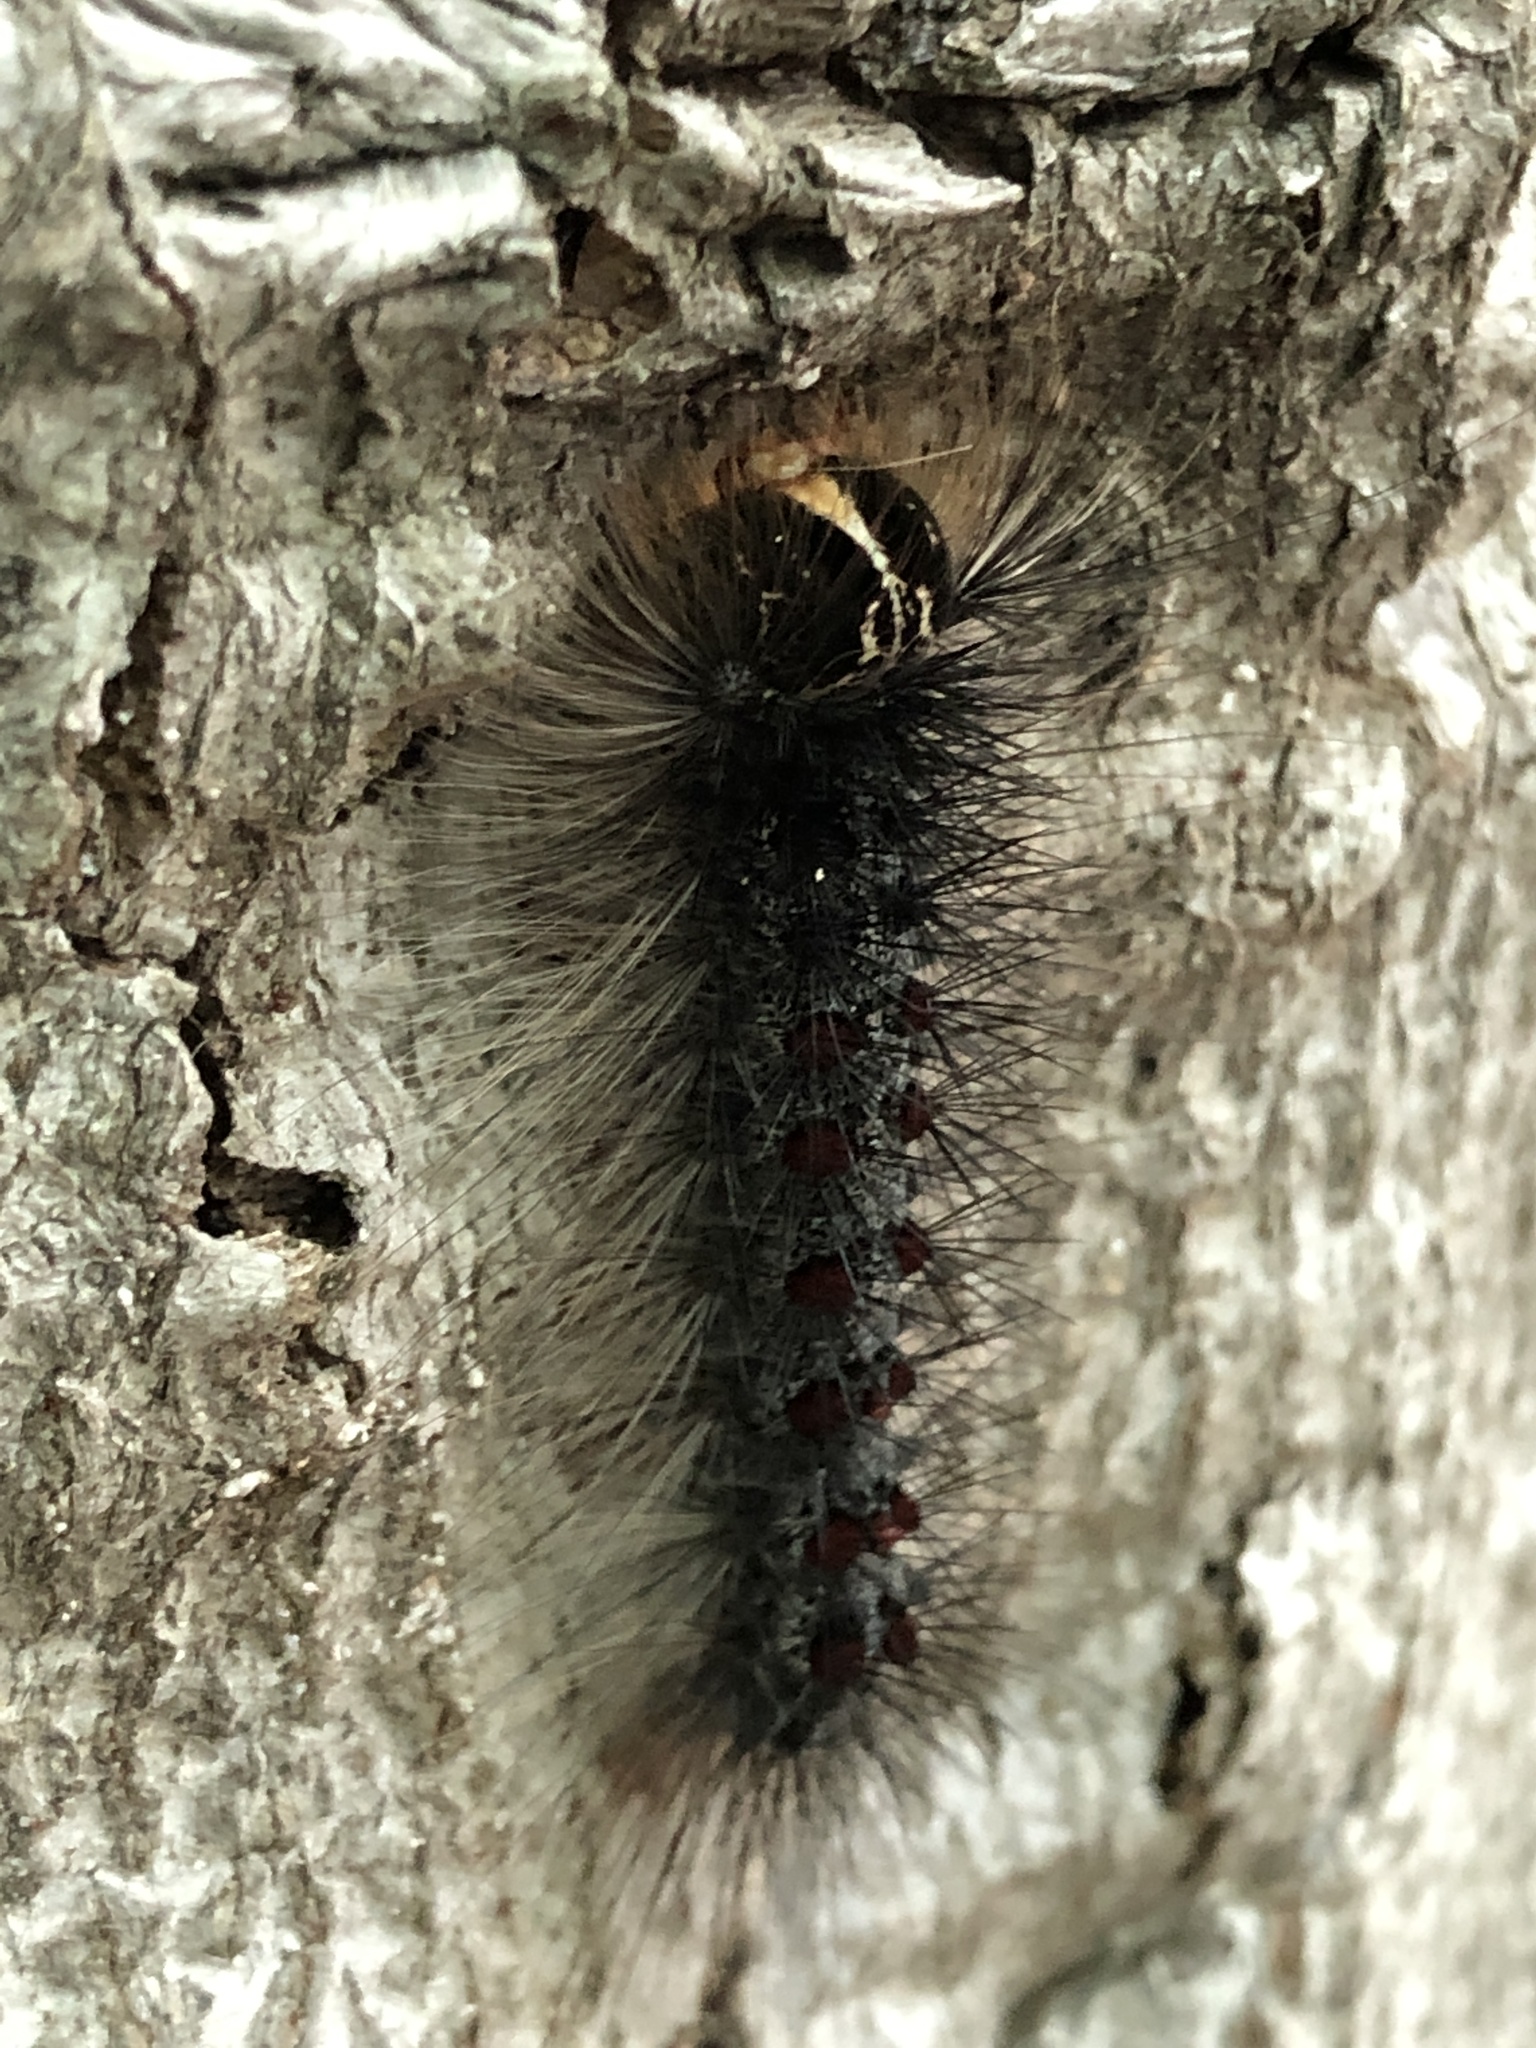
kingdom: Animalia
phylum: Arthropoda
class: Insecta
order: Lepidoptera
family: Erebidae
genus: Lymantria
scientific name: Lymantria dispar
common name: Gypsy moth
